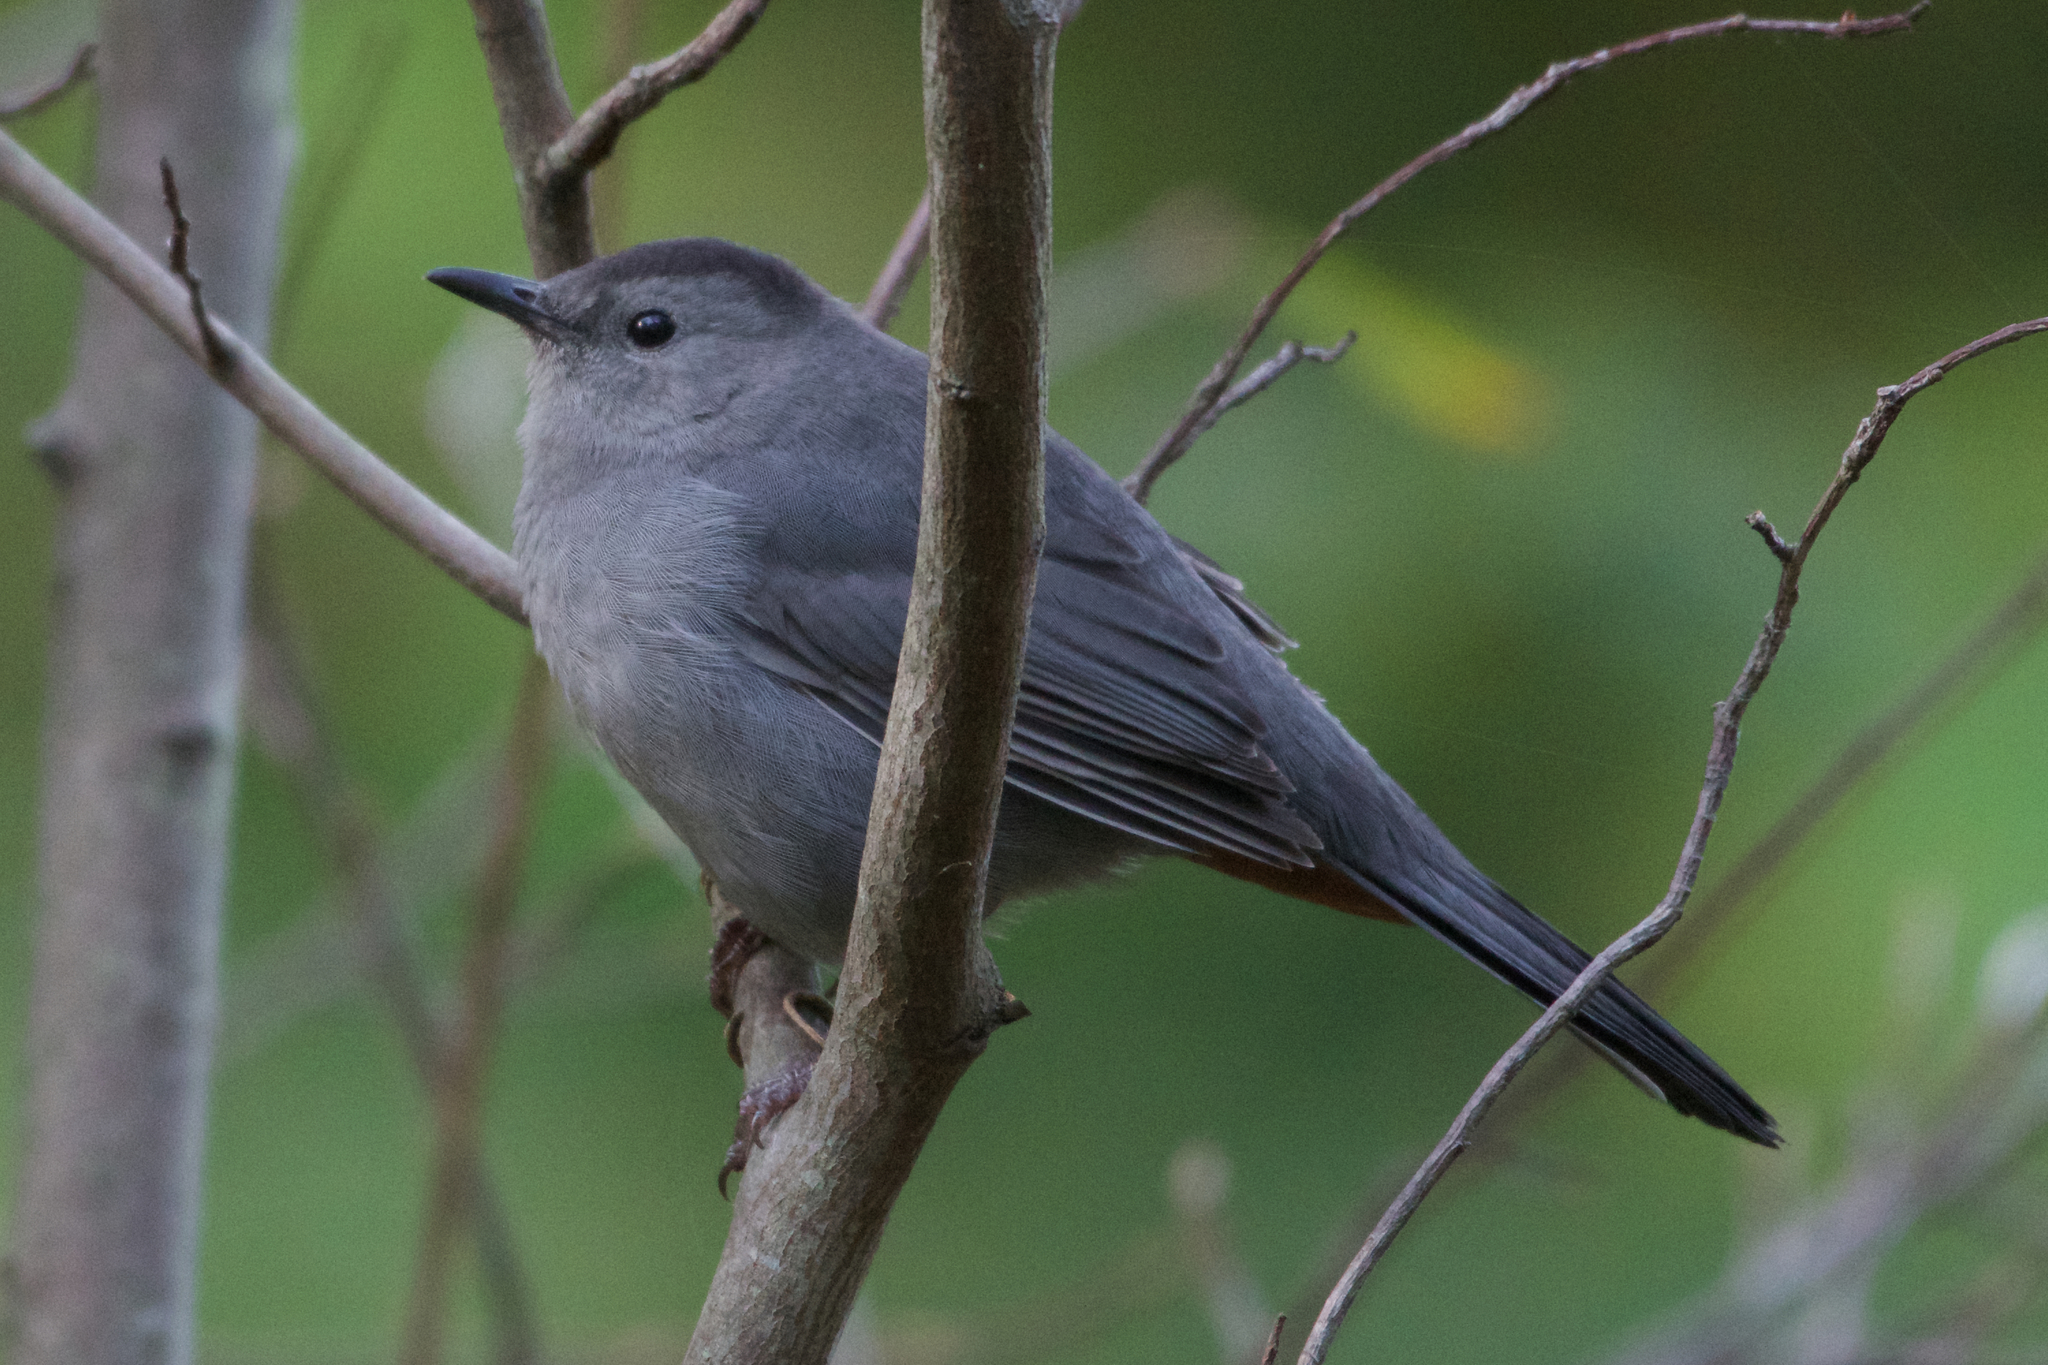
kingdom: Animalia
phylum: Chordata
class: Aves
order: Passeriformes
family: Mimidae
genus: Dumetella
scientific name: Dumetella carolinensis
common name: Gray catbird
